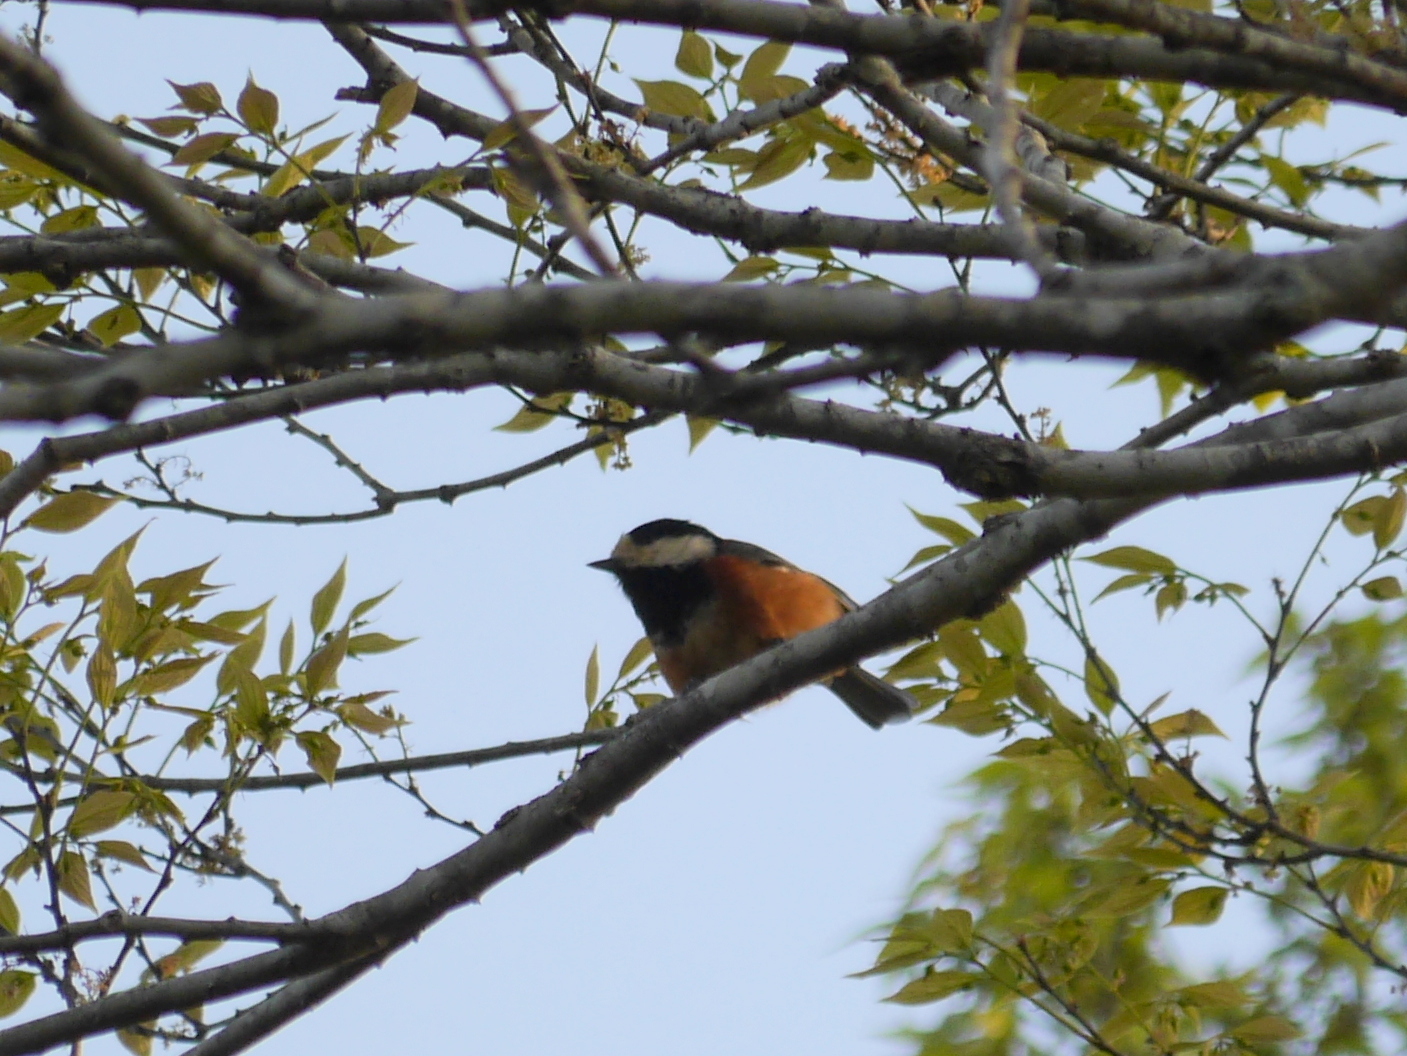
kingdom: Animalia
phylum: Chordata
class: Aves
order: Passeriformes
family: Paridae
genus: Poecile
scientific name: Poecile varius
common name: Varied tit
